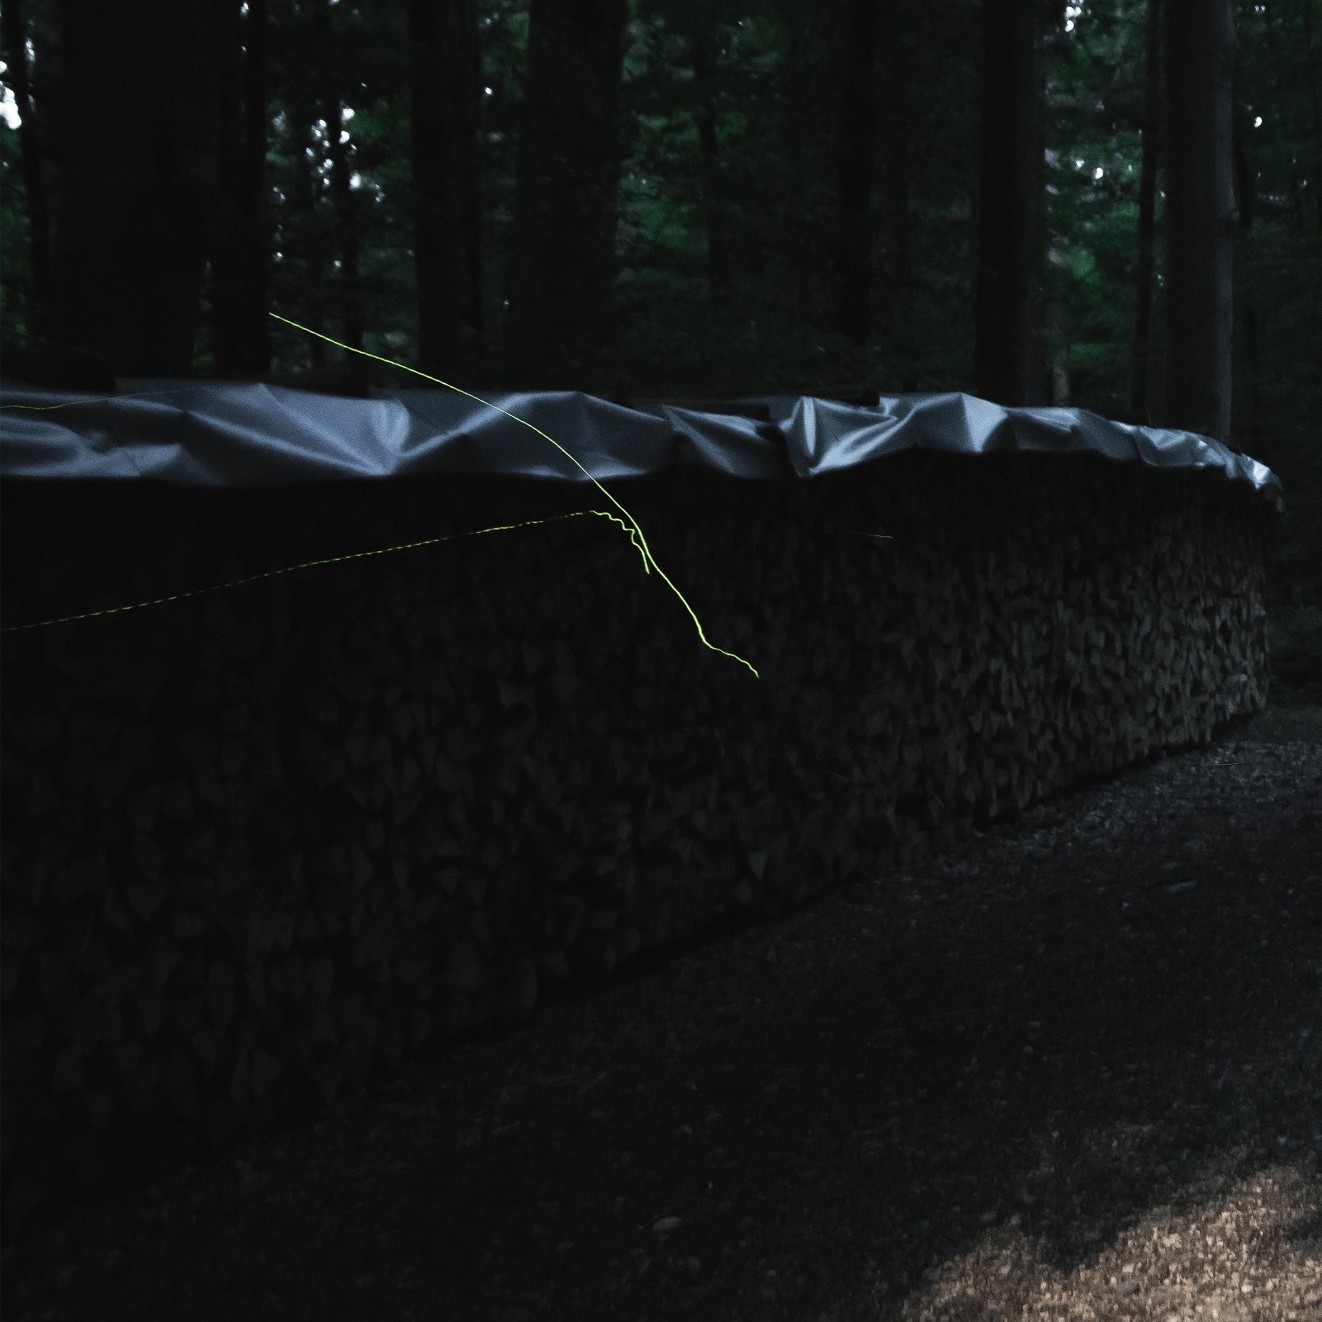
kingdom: Animalia
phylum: Arthropoda
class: Insecta
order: Coleoptera
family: Lampyridae
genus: Lamprohiza
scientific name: Lamprohiza splendidula
